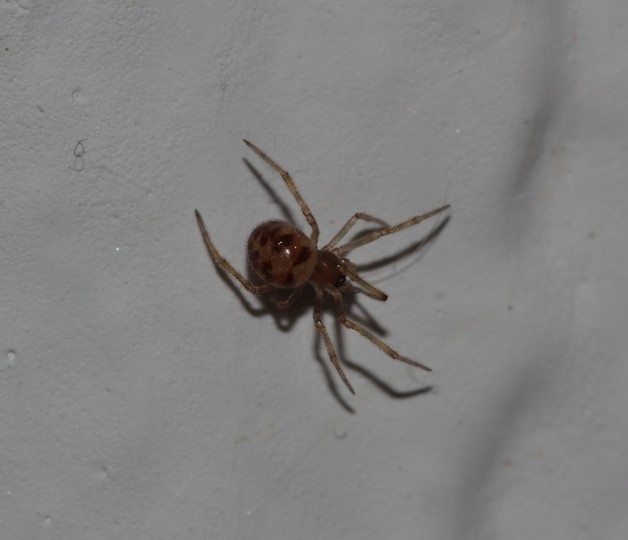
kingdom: Animalia
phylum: Arthropoda
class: Arachnida
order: Araneae
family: Theridiidae
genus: Steatoda
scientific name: Steatoda triangulosa
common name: Triangulate bud spider
